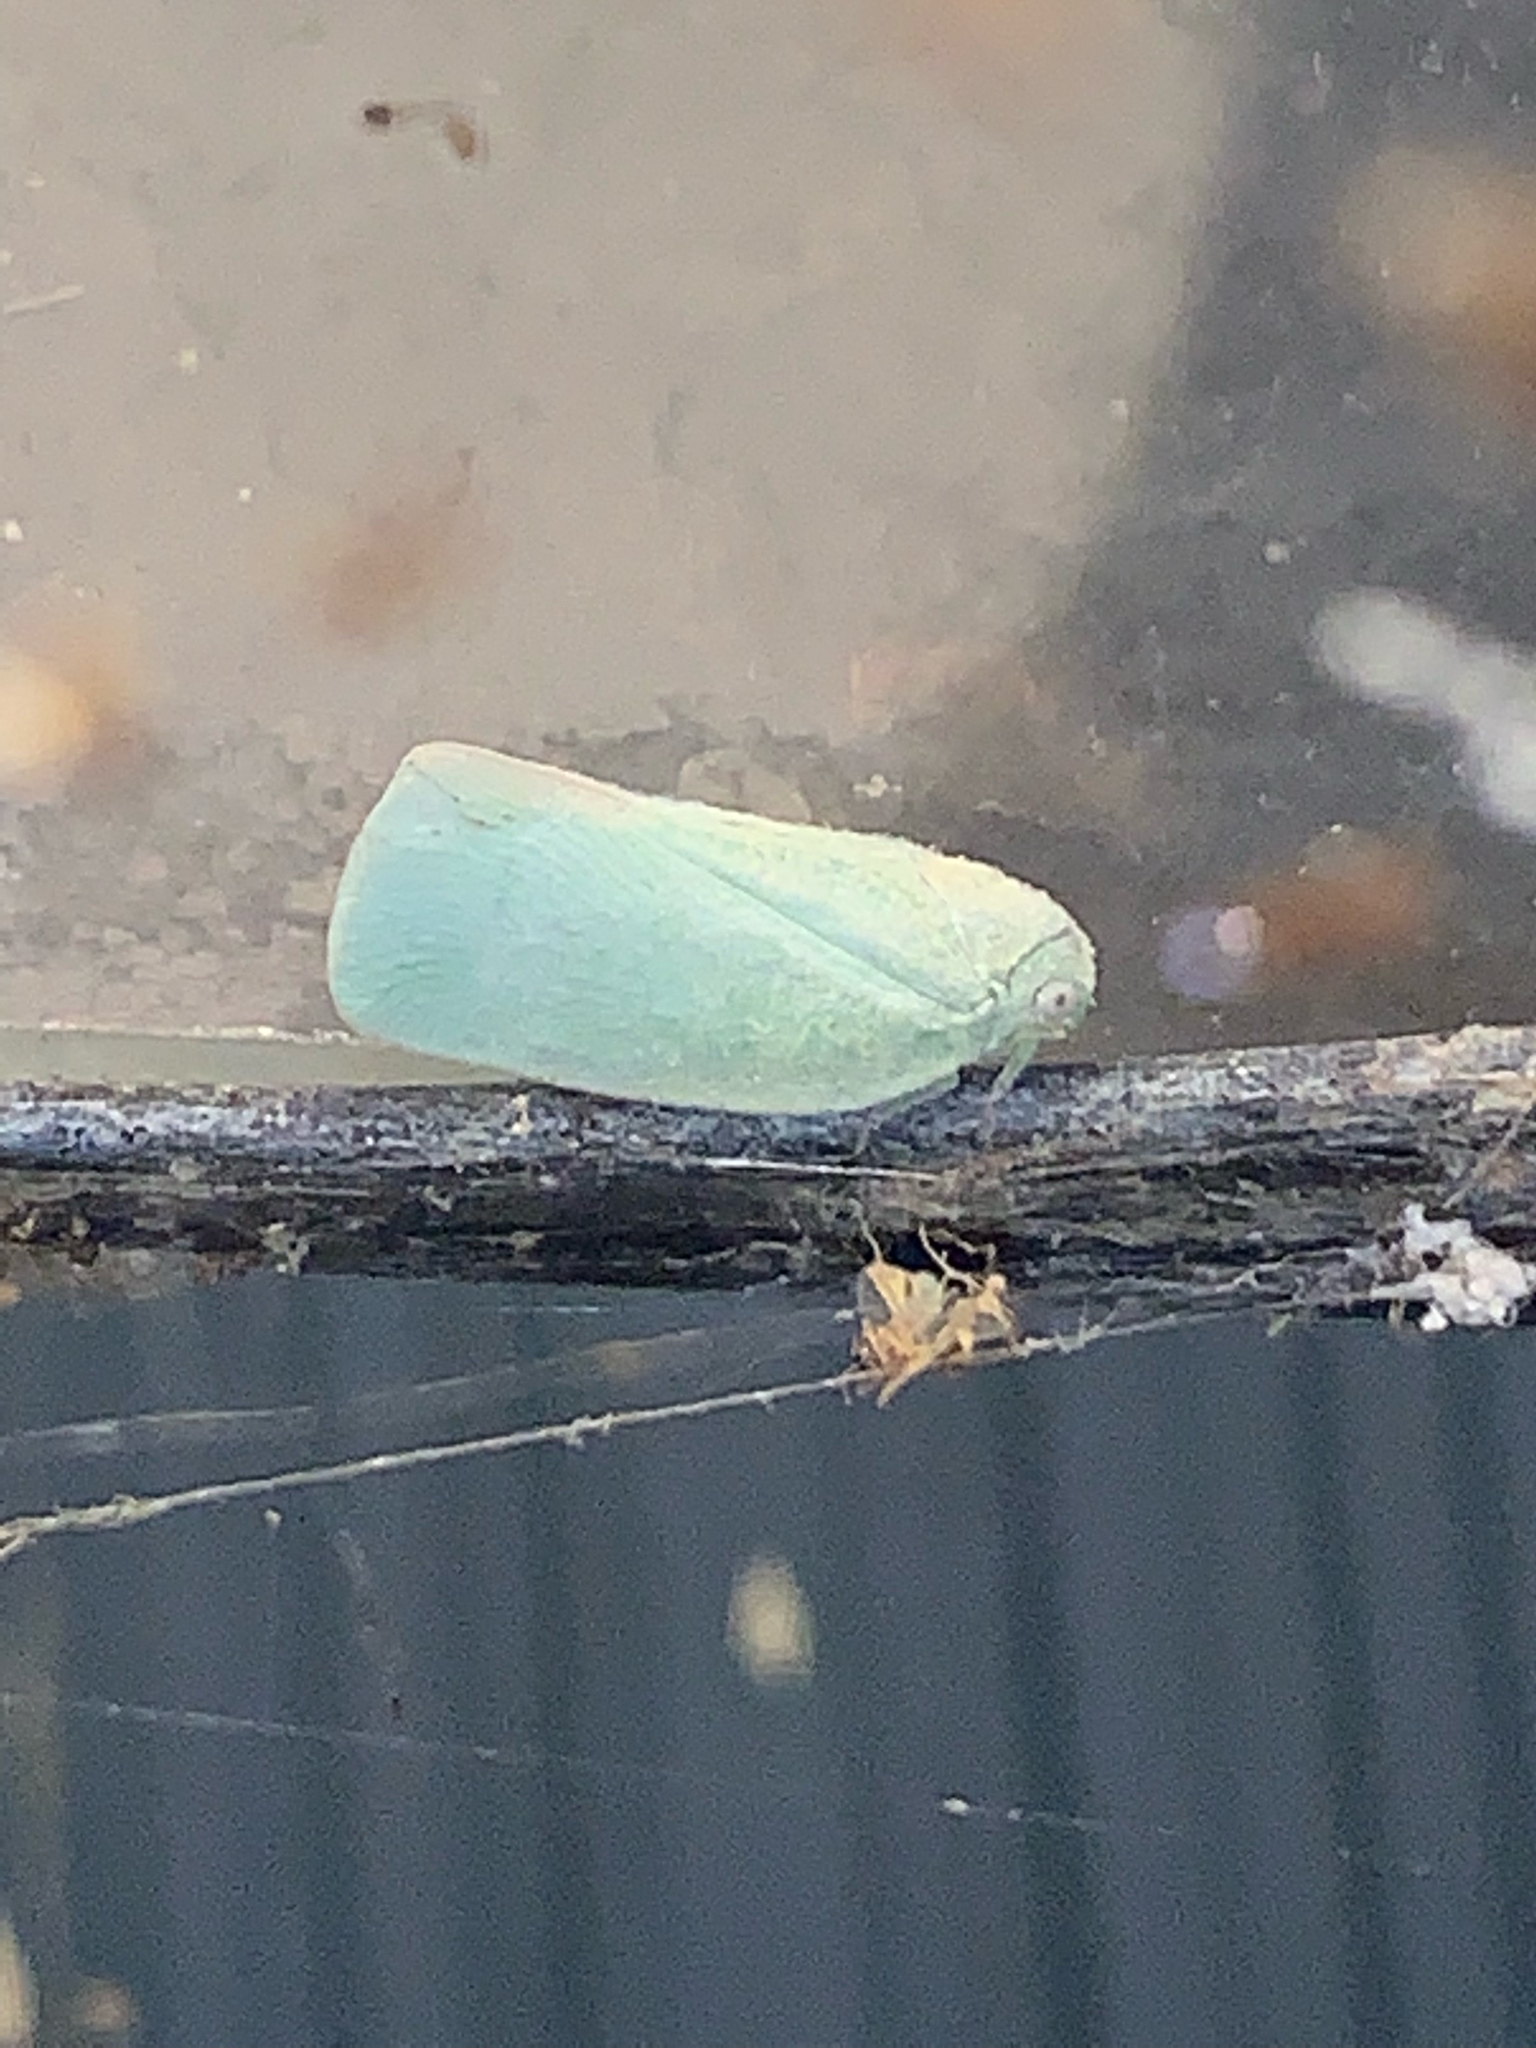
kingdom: Animalia
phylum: Arthropoda
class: Insecta
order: Hemiptera
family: Flatidae
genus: Flatormenis
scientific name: Flatormenis proxima
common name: Northern flatid planthopper
